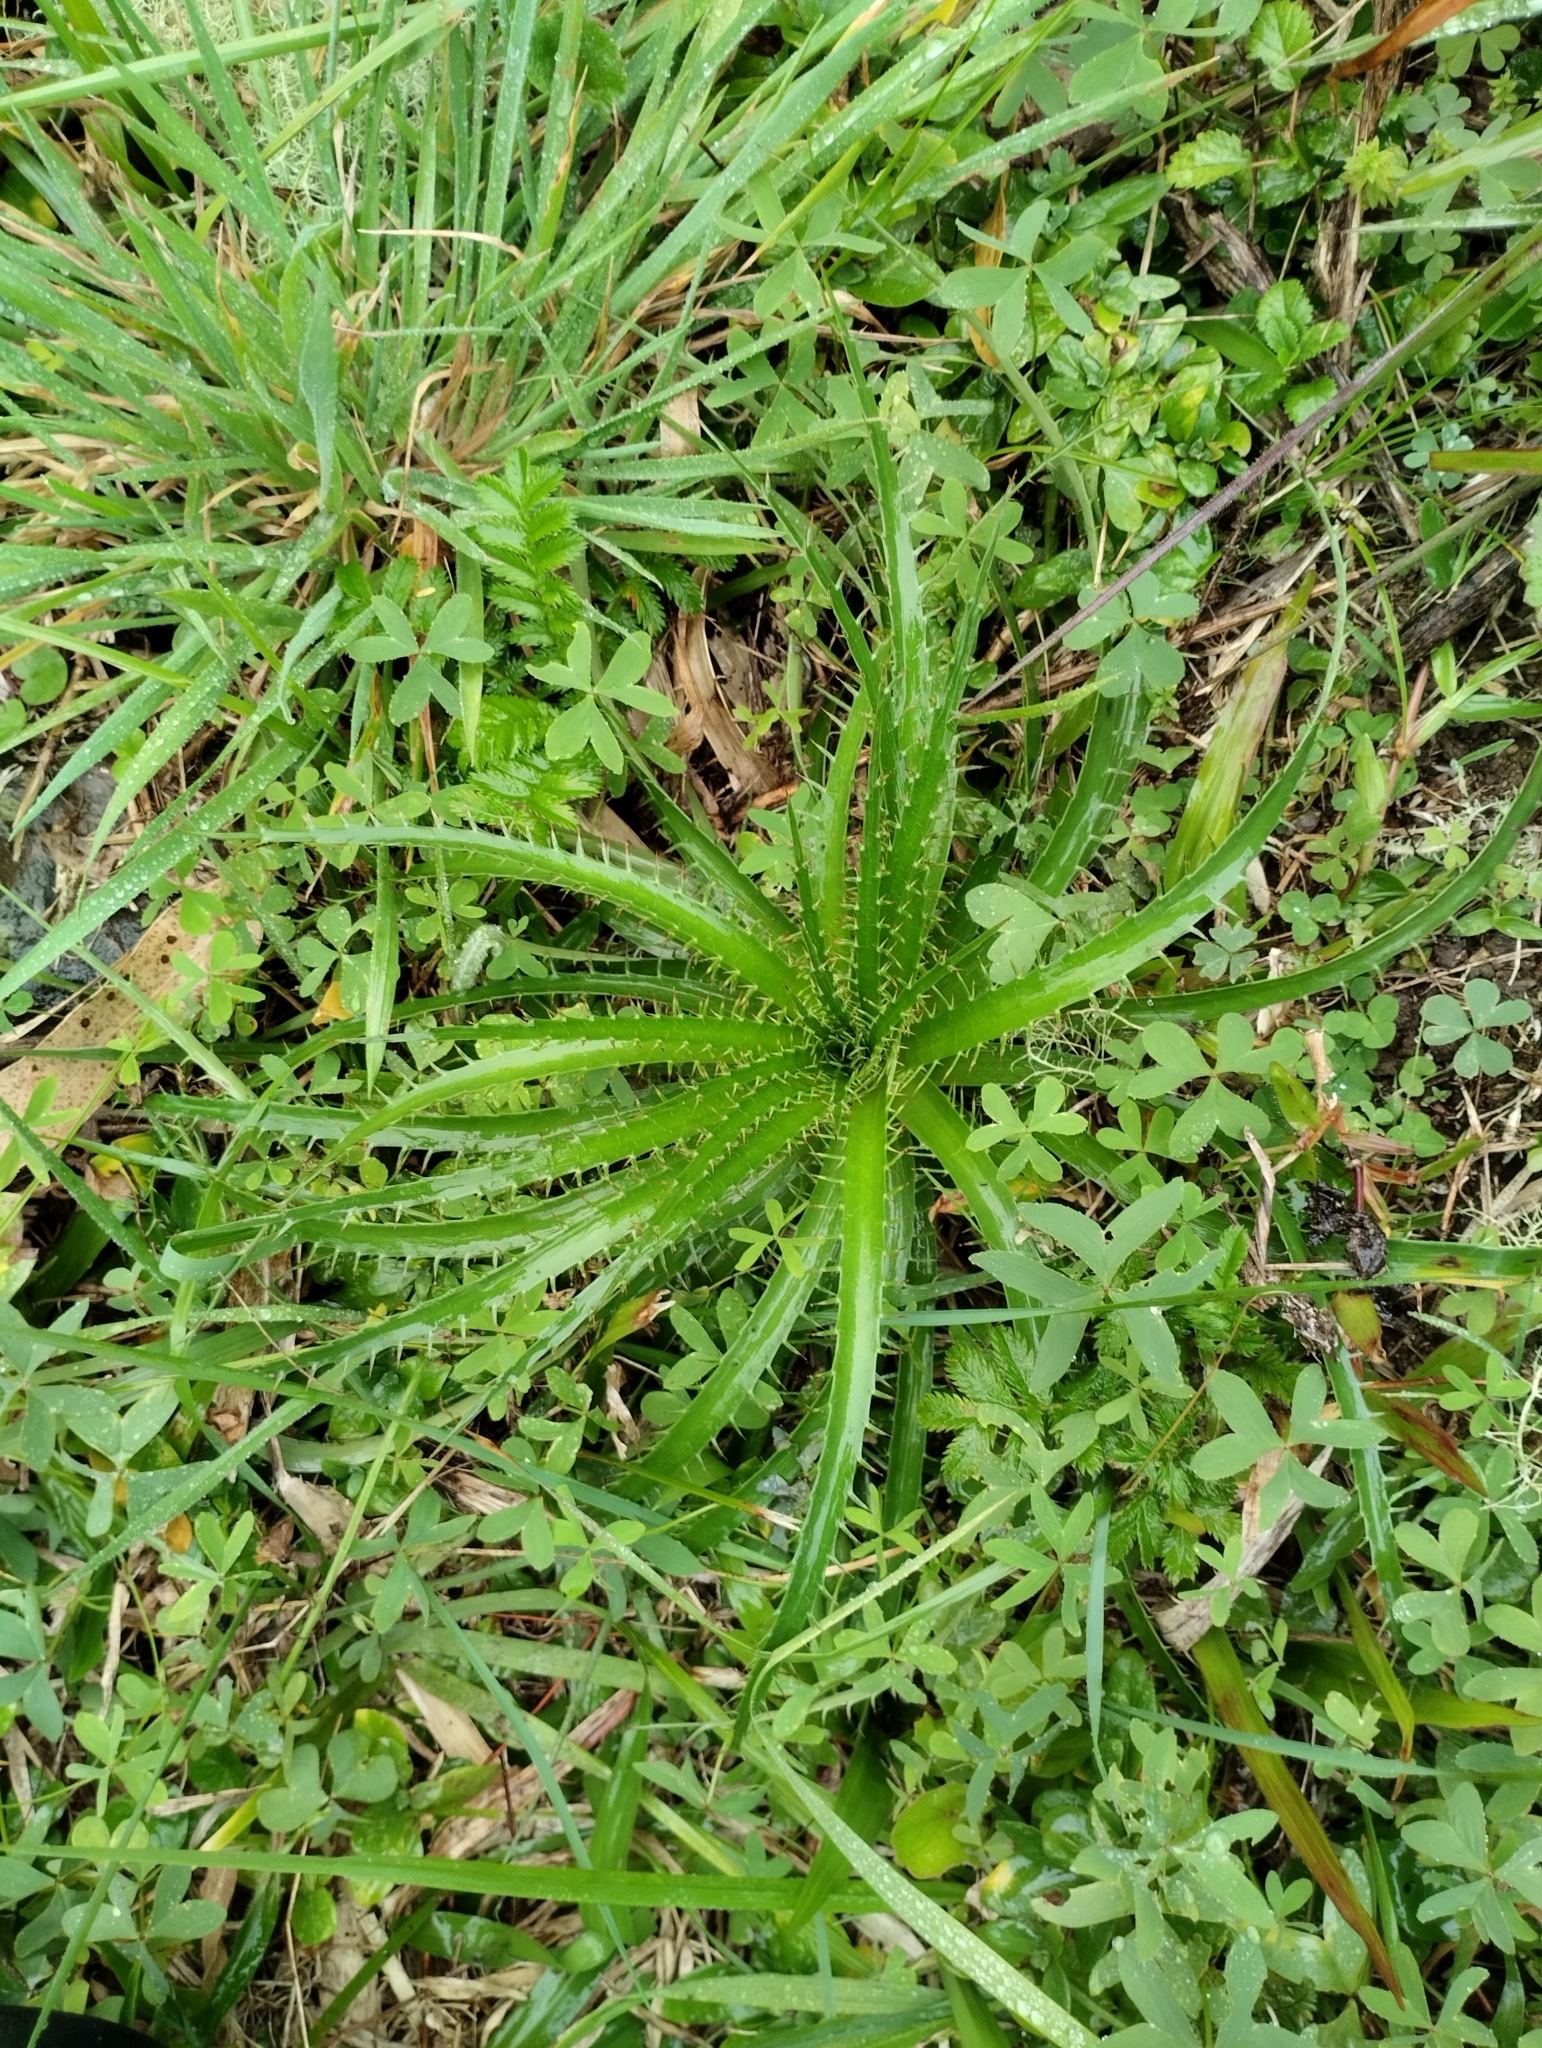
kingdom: Plantae
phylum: Tracheophyta
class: Magnoliopsida
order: Apiales
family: Apiaceae
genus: Eryngium
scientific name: Eryngium horridum
